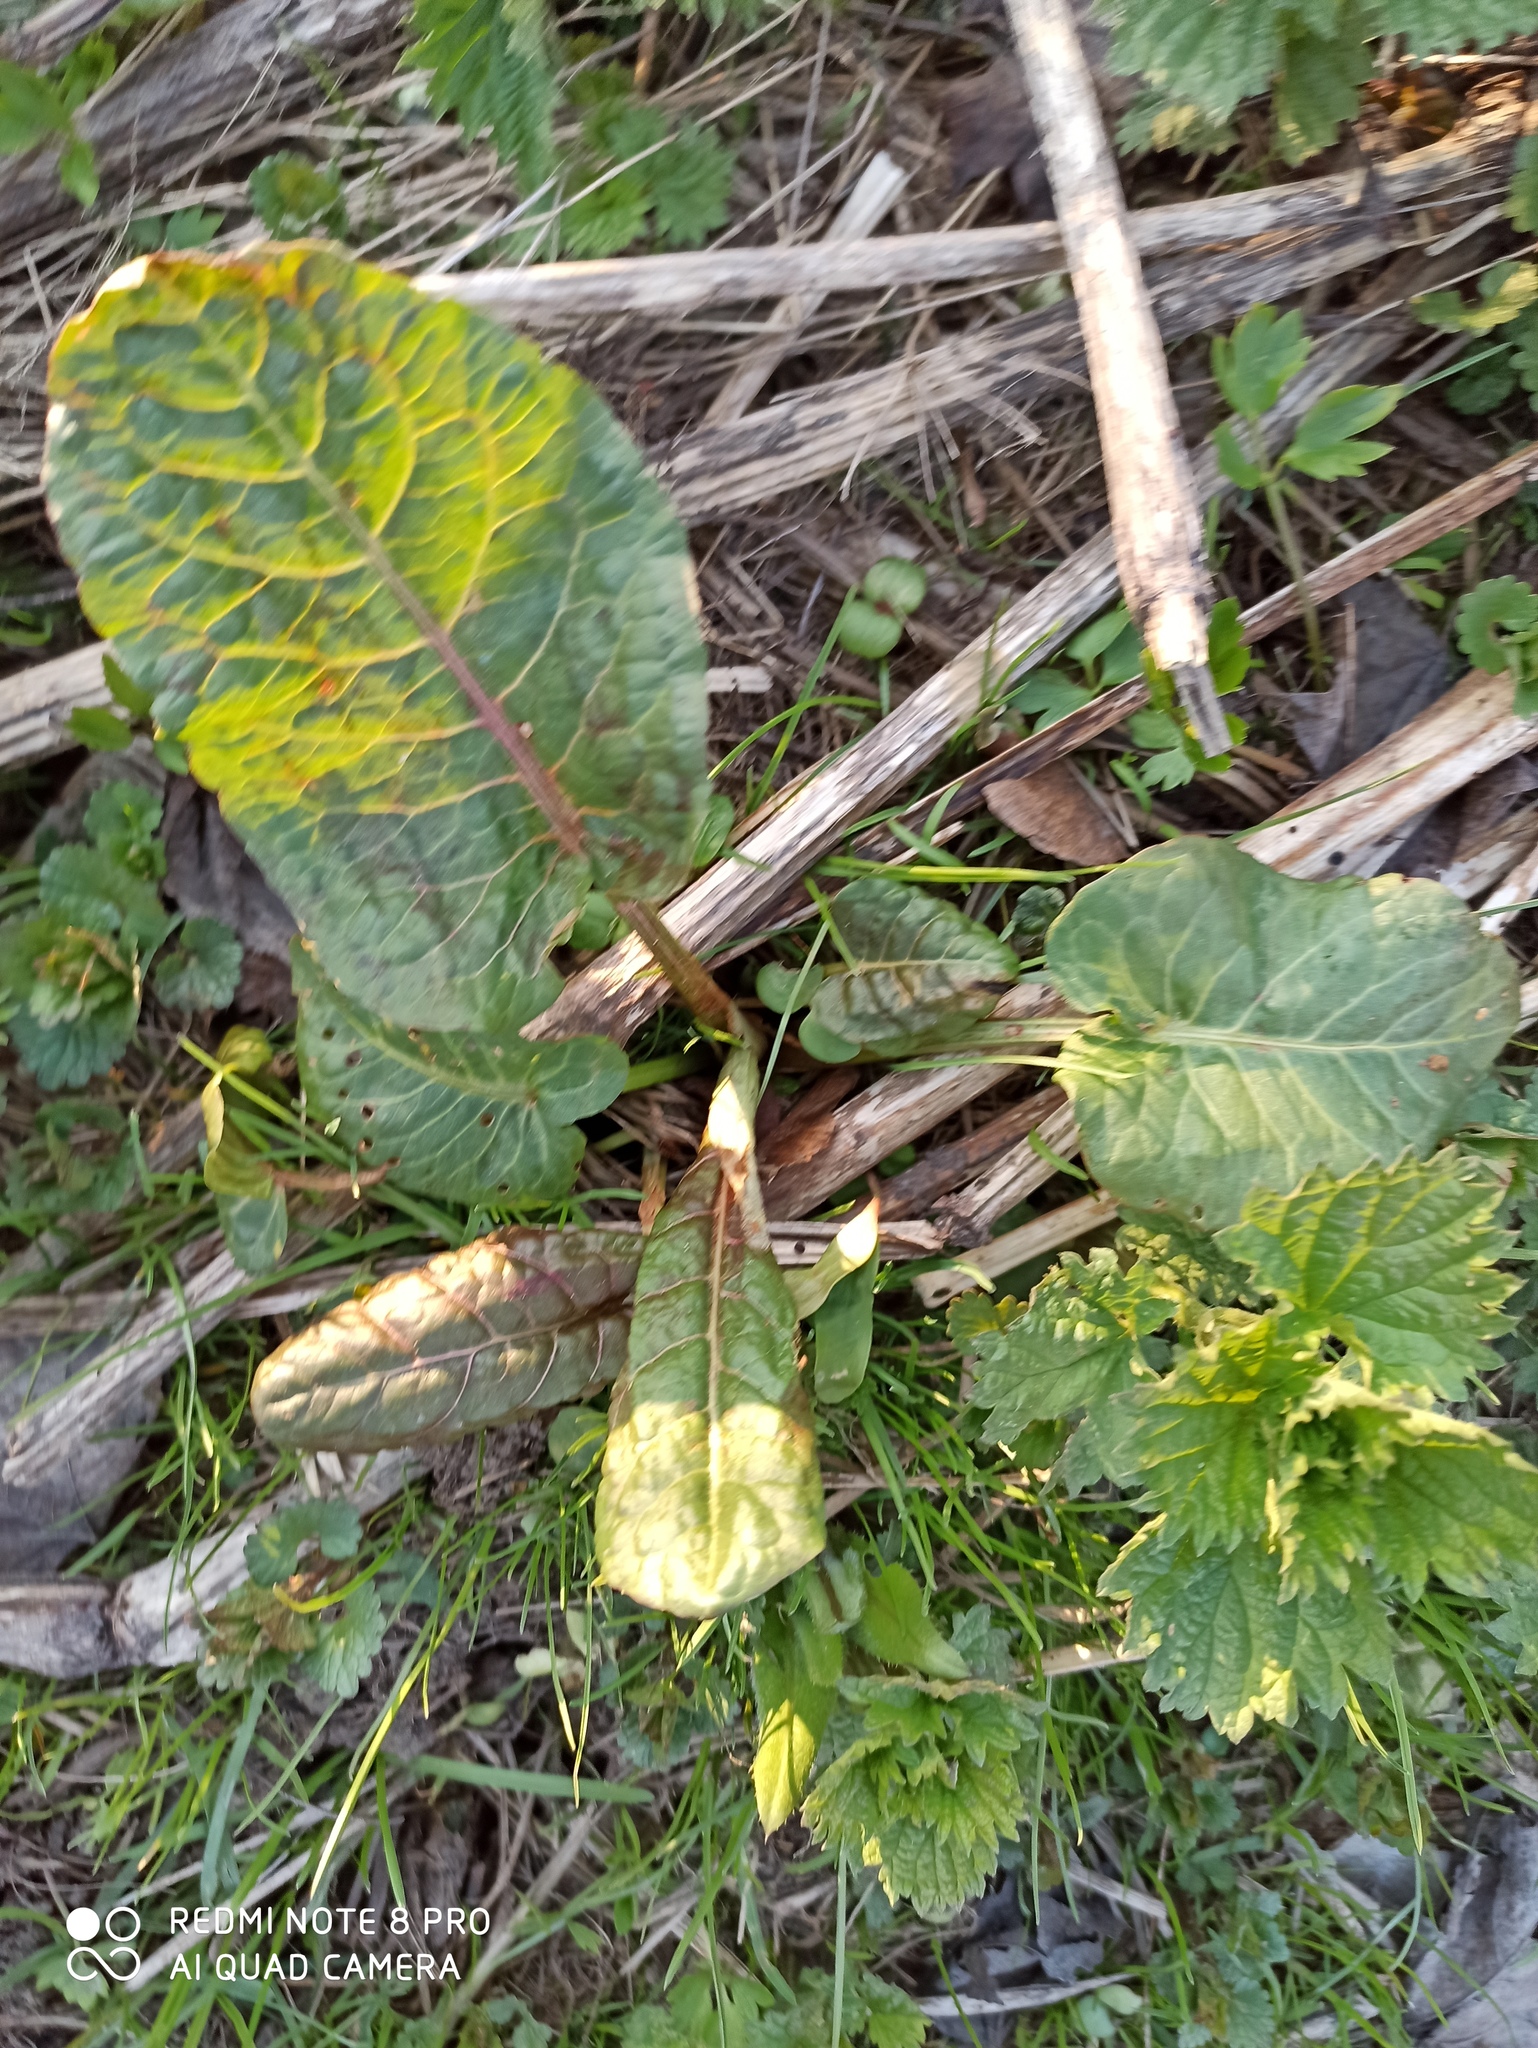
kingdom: Plantae
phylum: Tracheophyta
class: Magnoliopsida
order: Caryophyllales
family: Polygonaceae
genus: Rumex
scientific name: Rumex obtusifolius
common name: Bitter dock
